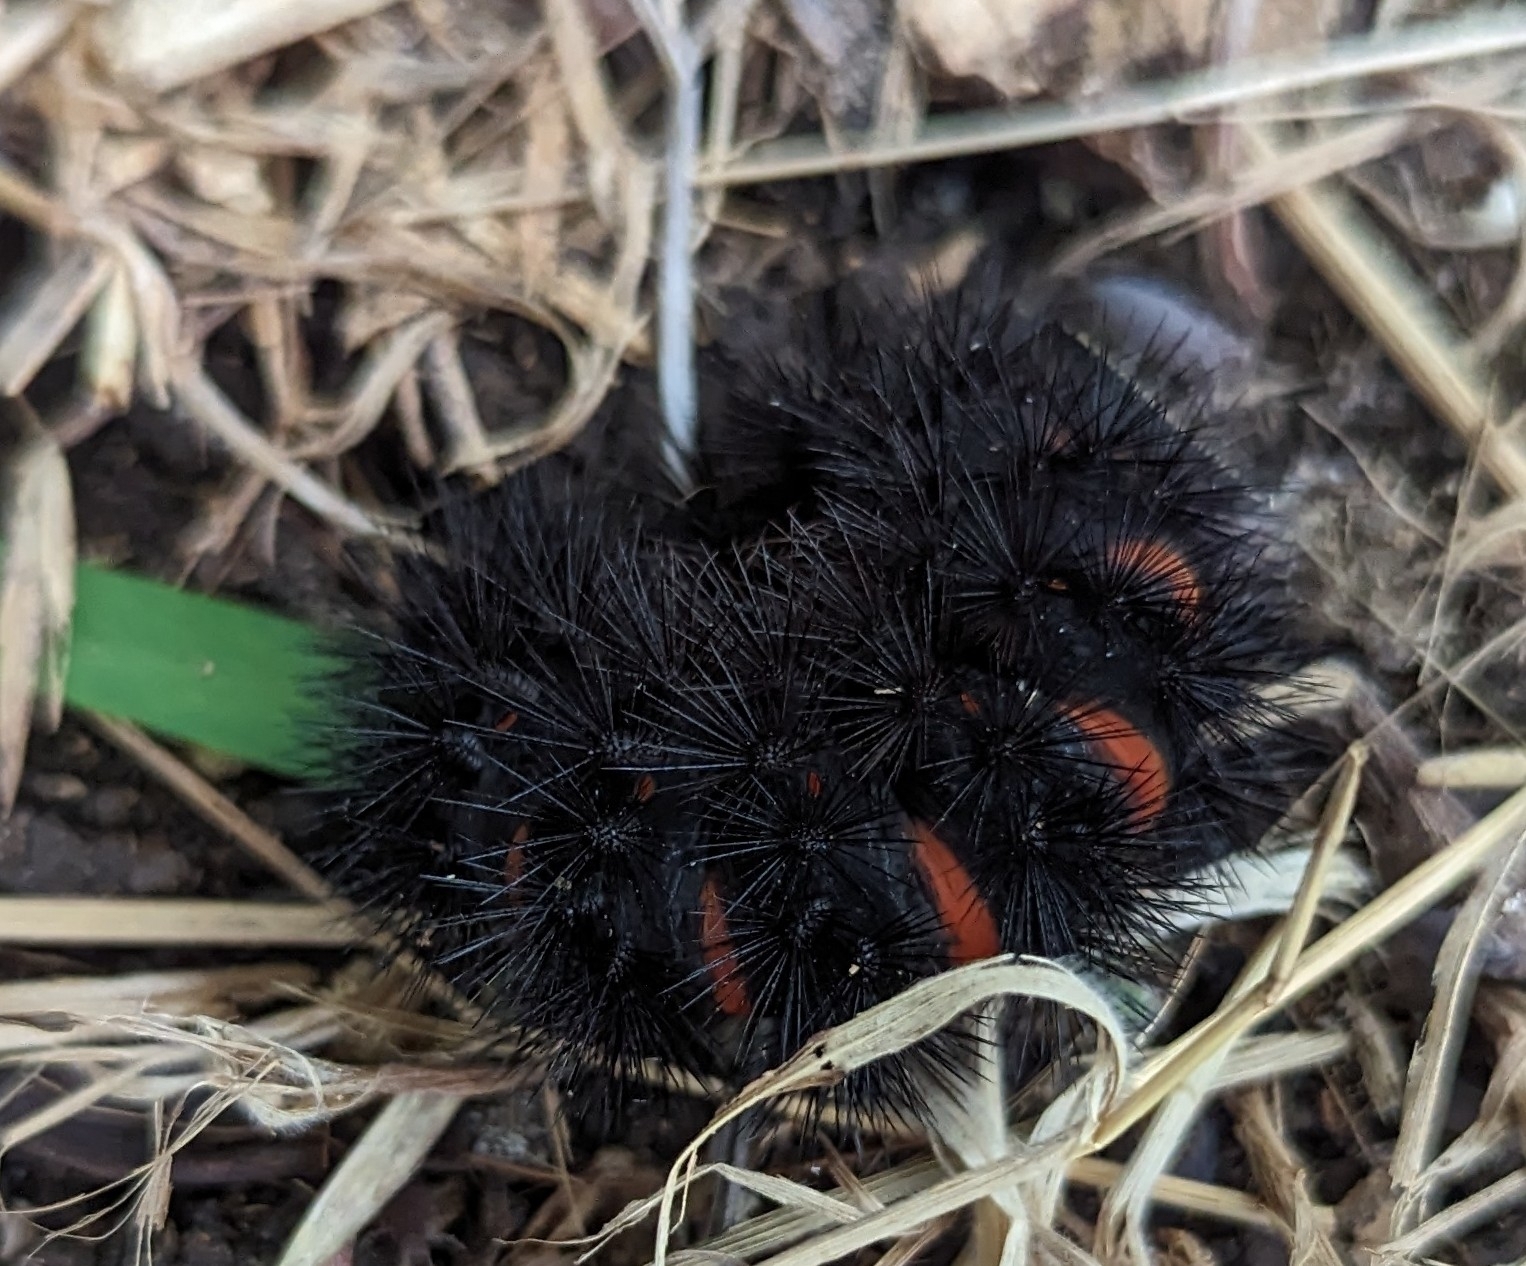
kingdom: Animalia
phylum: Arthropoda
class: Insecta
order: Lepidoptera
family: Erebidae
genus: Hypercompe
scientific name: Hypercompe scribonia
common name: Giant leopard moth
